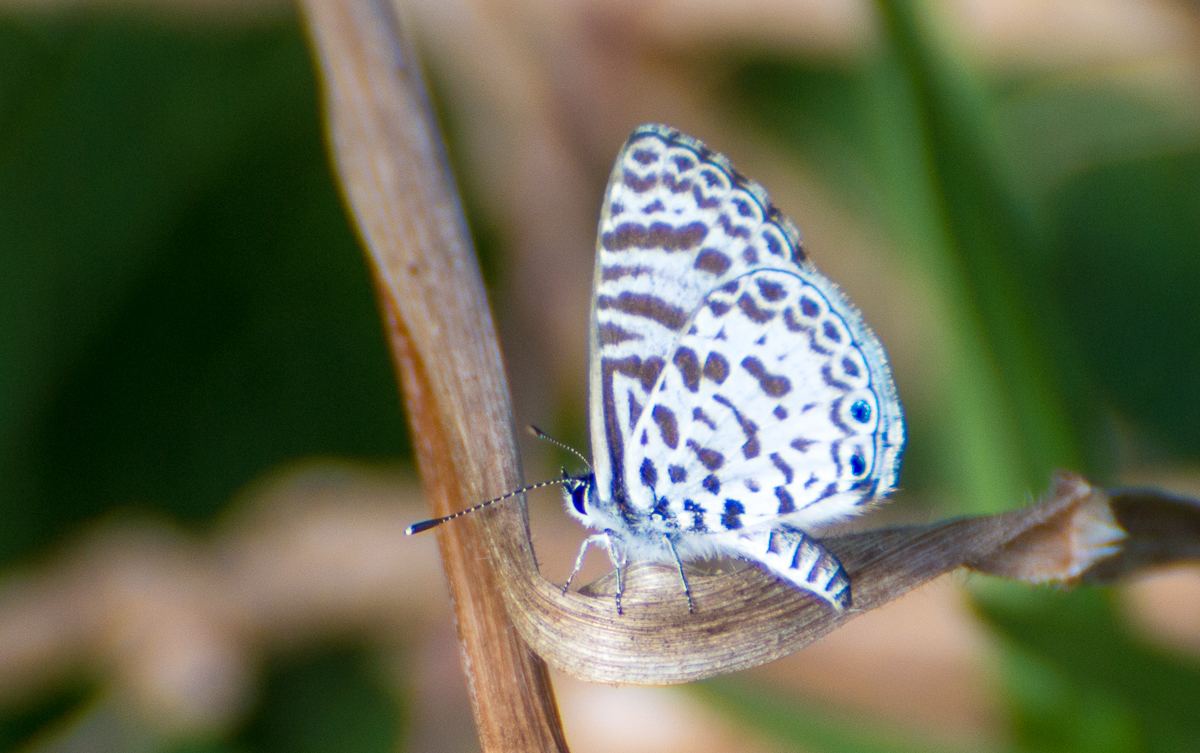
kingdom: Animalia
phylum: Arthropoda
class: Insecta
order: Lepidoptera
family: Lycaenidae
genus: Leptotes
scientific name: Leptotes cassius
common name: Cassius blue
